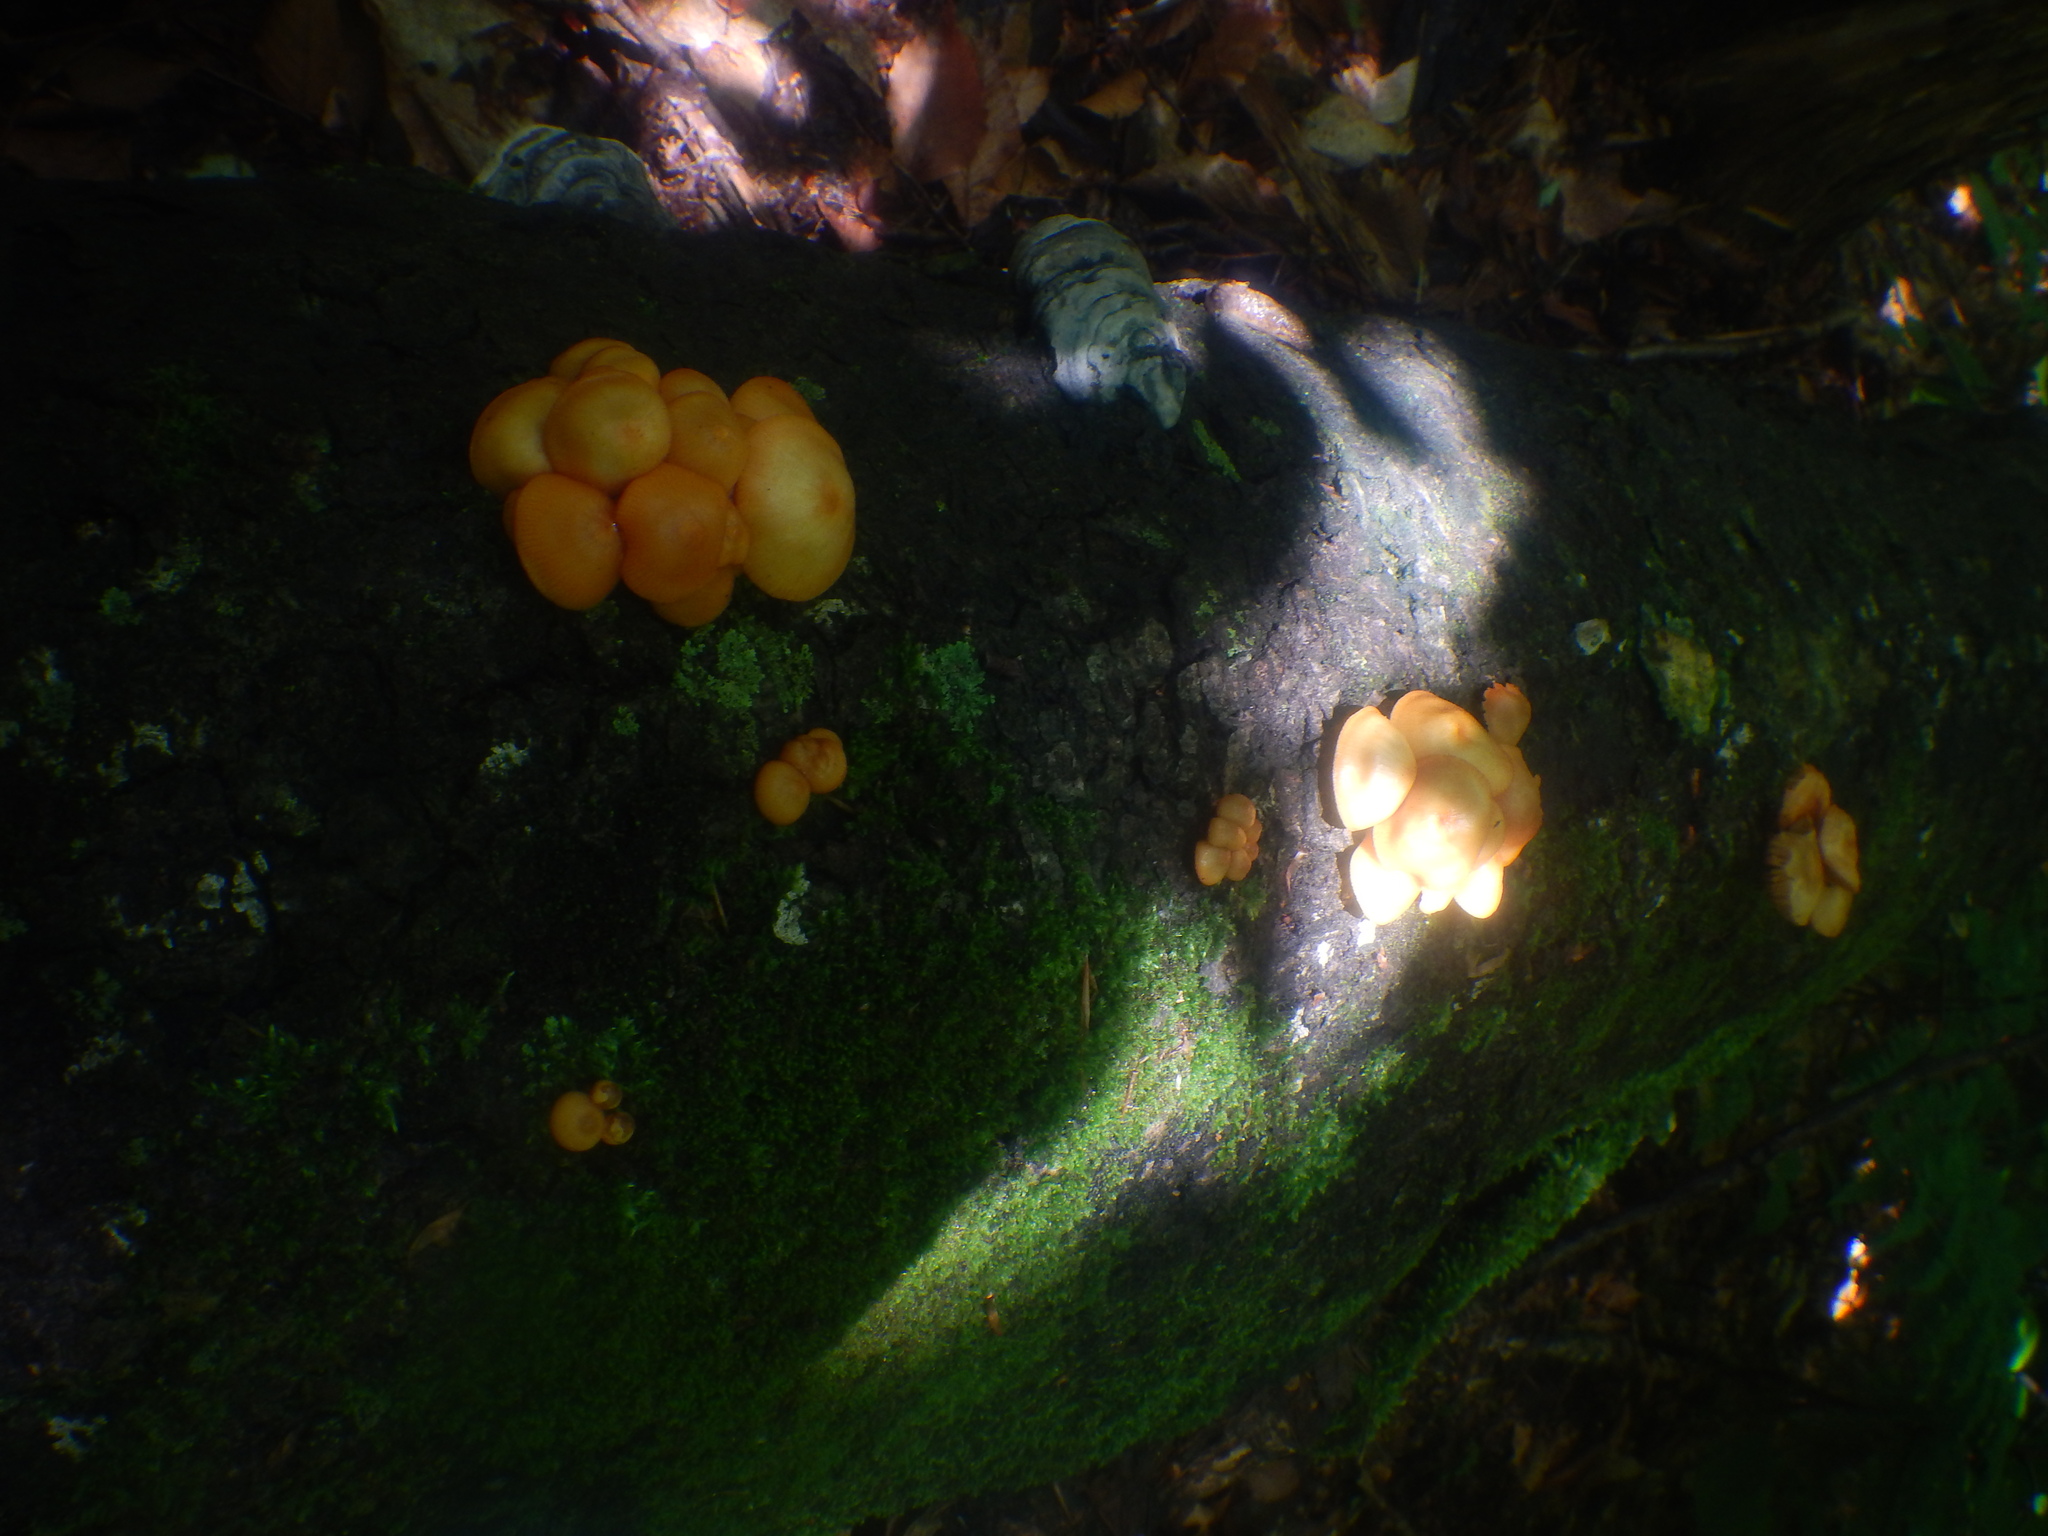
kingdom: Fungi
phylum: Basidiomycota
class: Agaricomycetes
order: Agaricales
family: Mycenaceae
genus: Mycena
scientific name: Mycena leaiana
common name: Orange mycena
